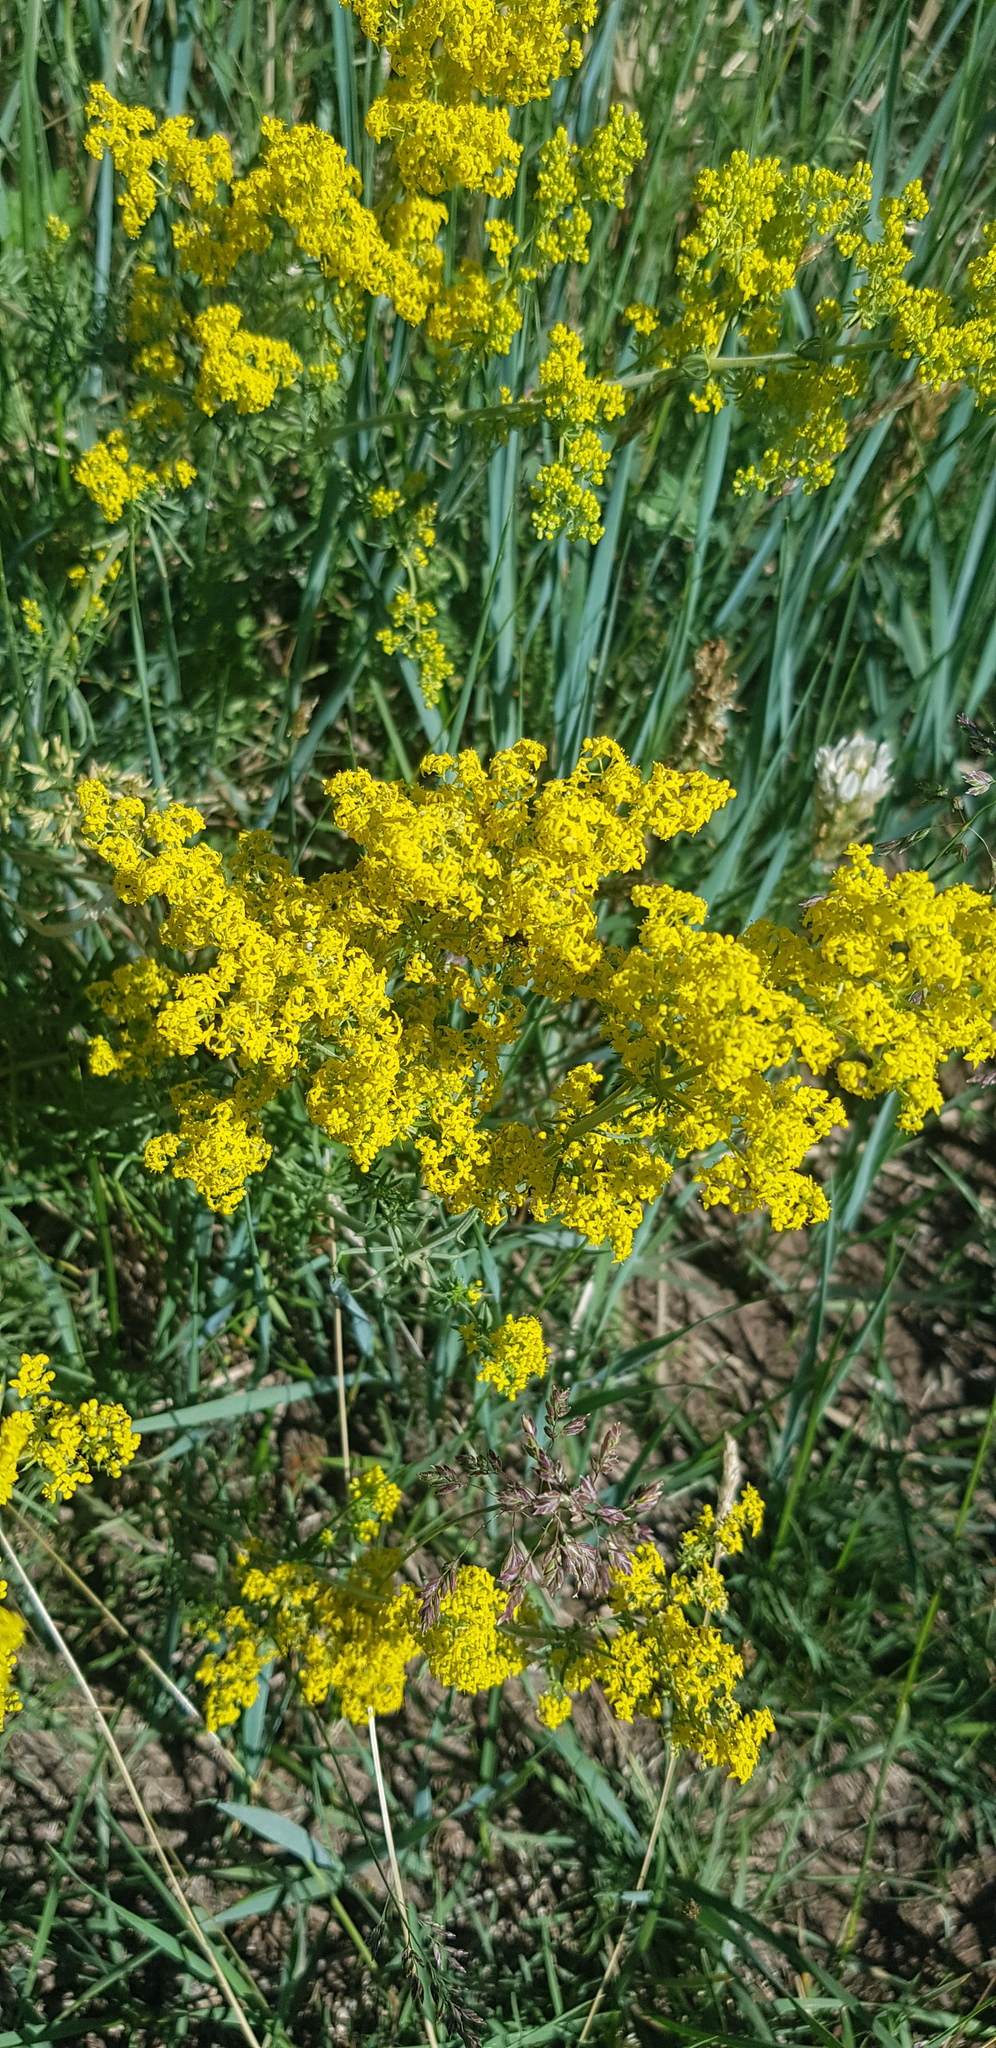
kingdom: Plantae
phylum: Tracheophyta
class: Magnoliopsida
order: Gentianales
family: Rubiaceae
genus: Galium
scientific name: Galium verum
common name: Lady's bedstraw
